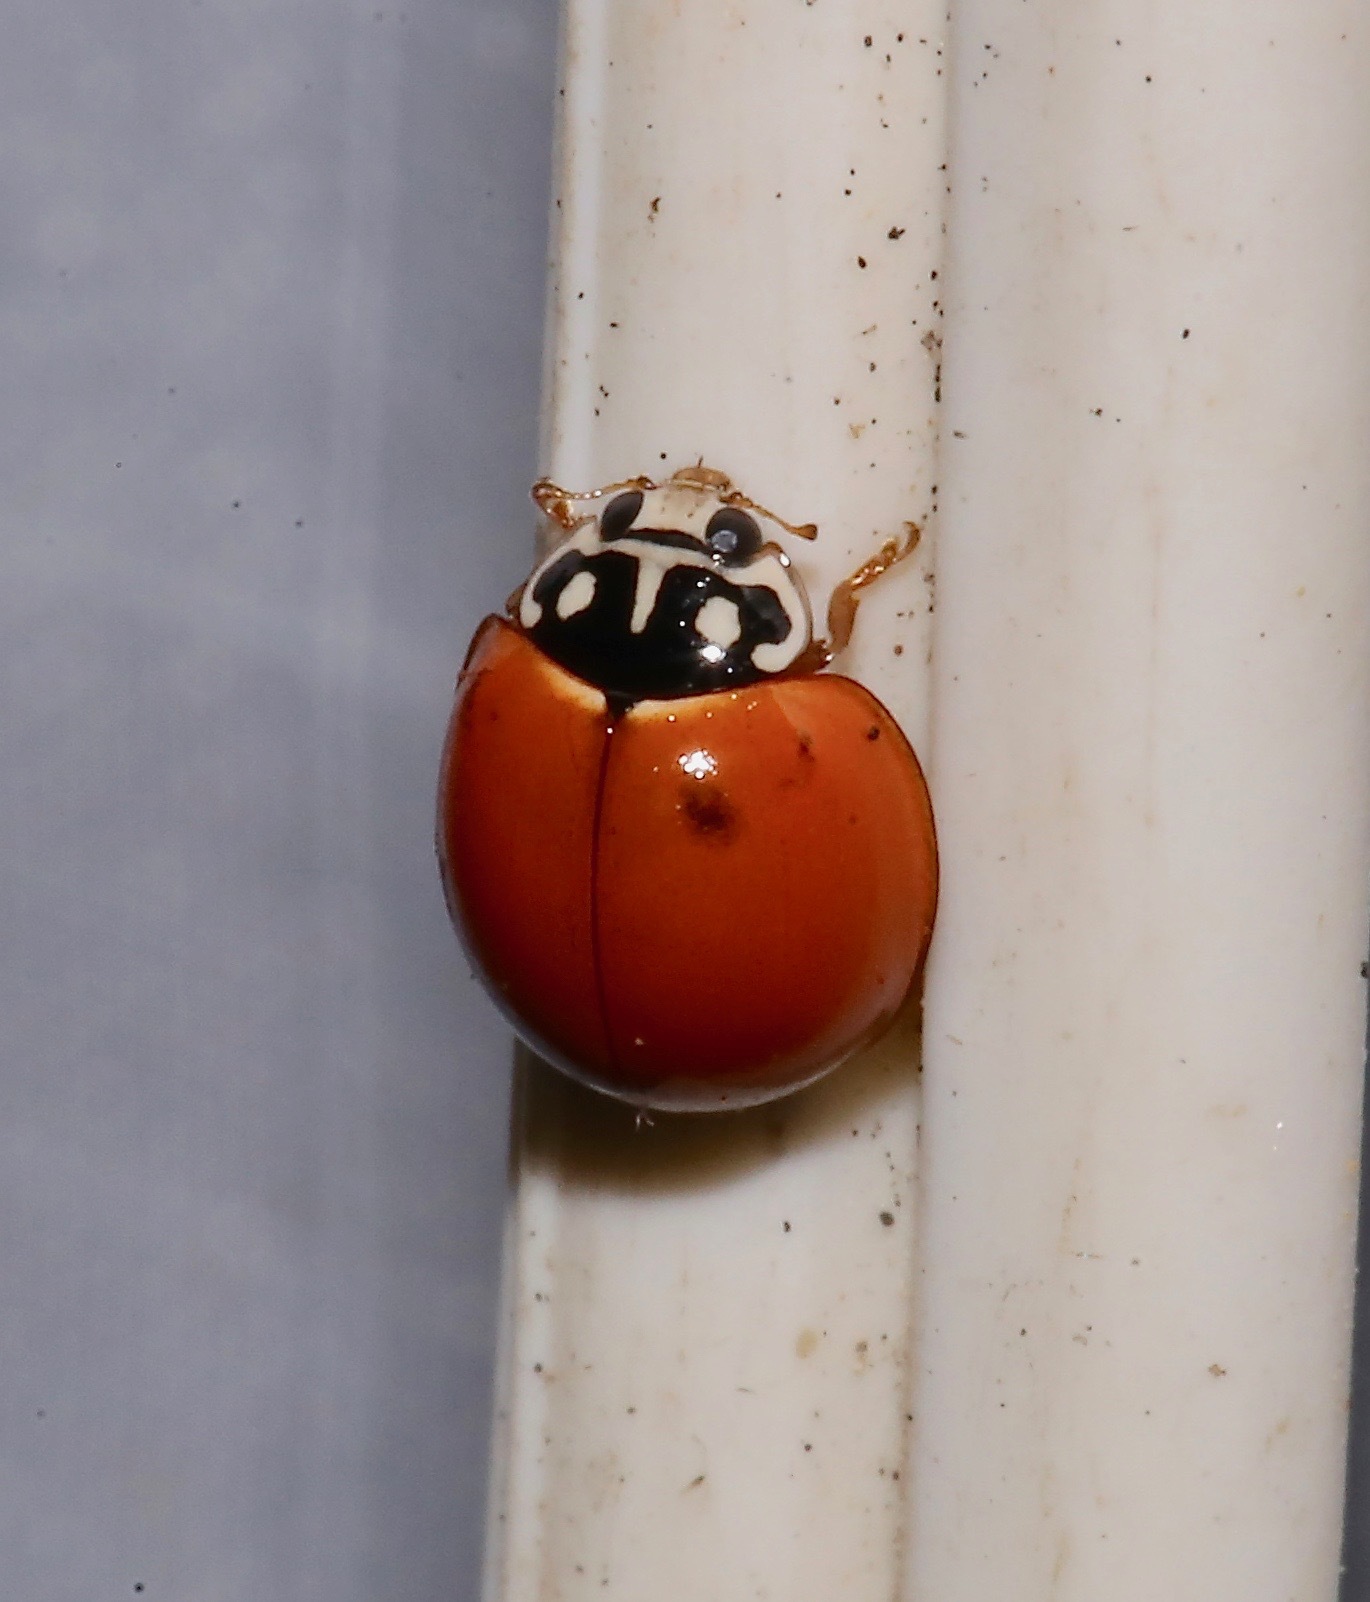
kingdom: Animalia
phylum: Arthropoda
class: Insecta
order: Coleoptera
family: Coccinellidae
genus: Cycloneda
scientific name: Cycloneda sanguinea
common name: Ladybird beetle
